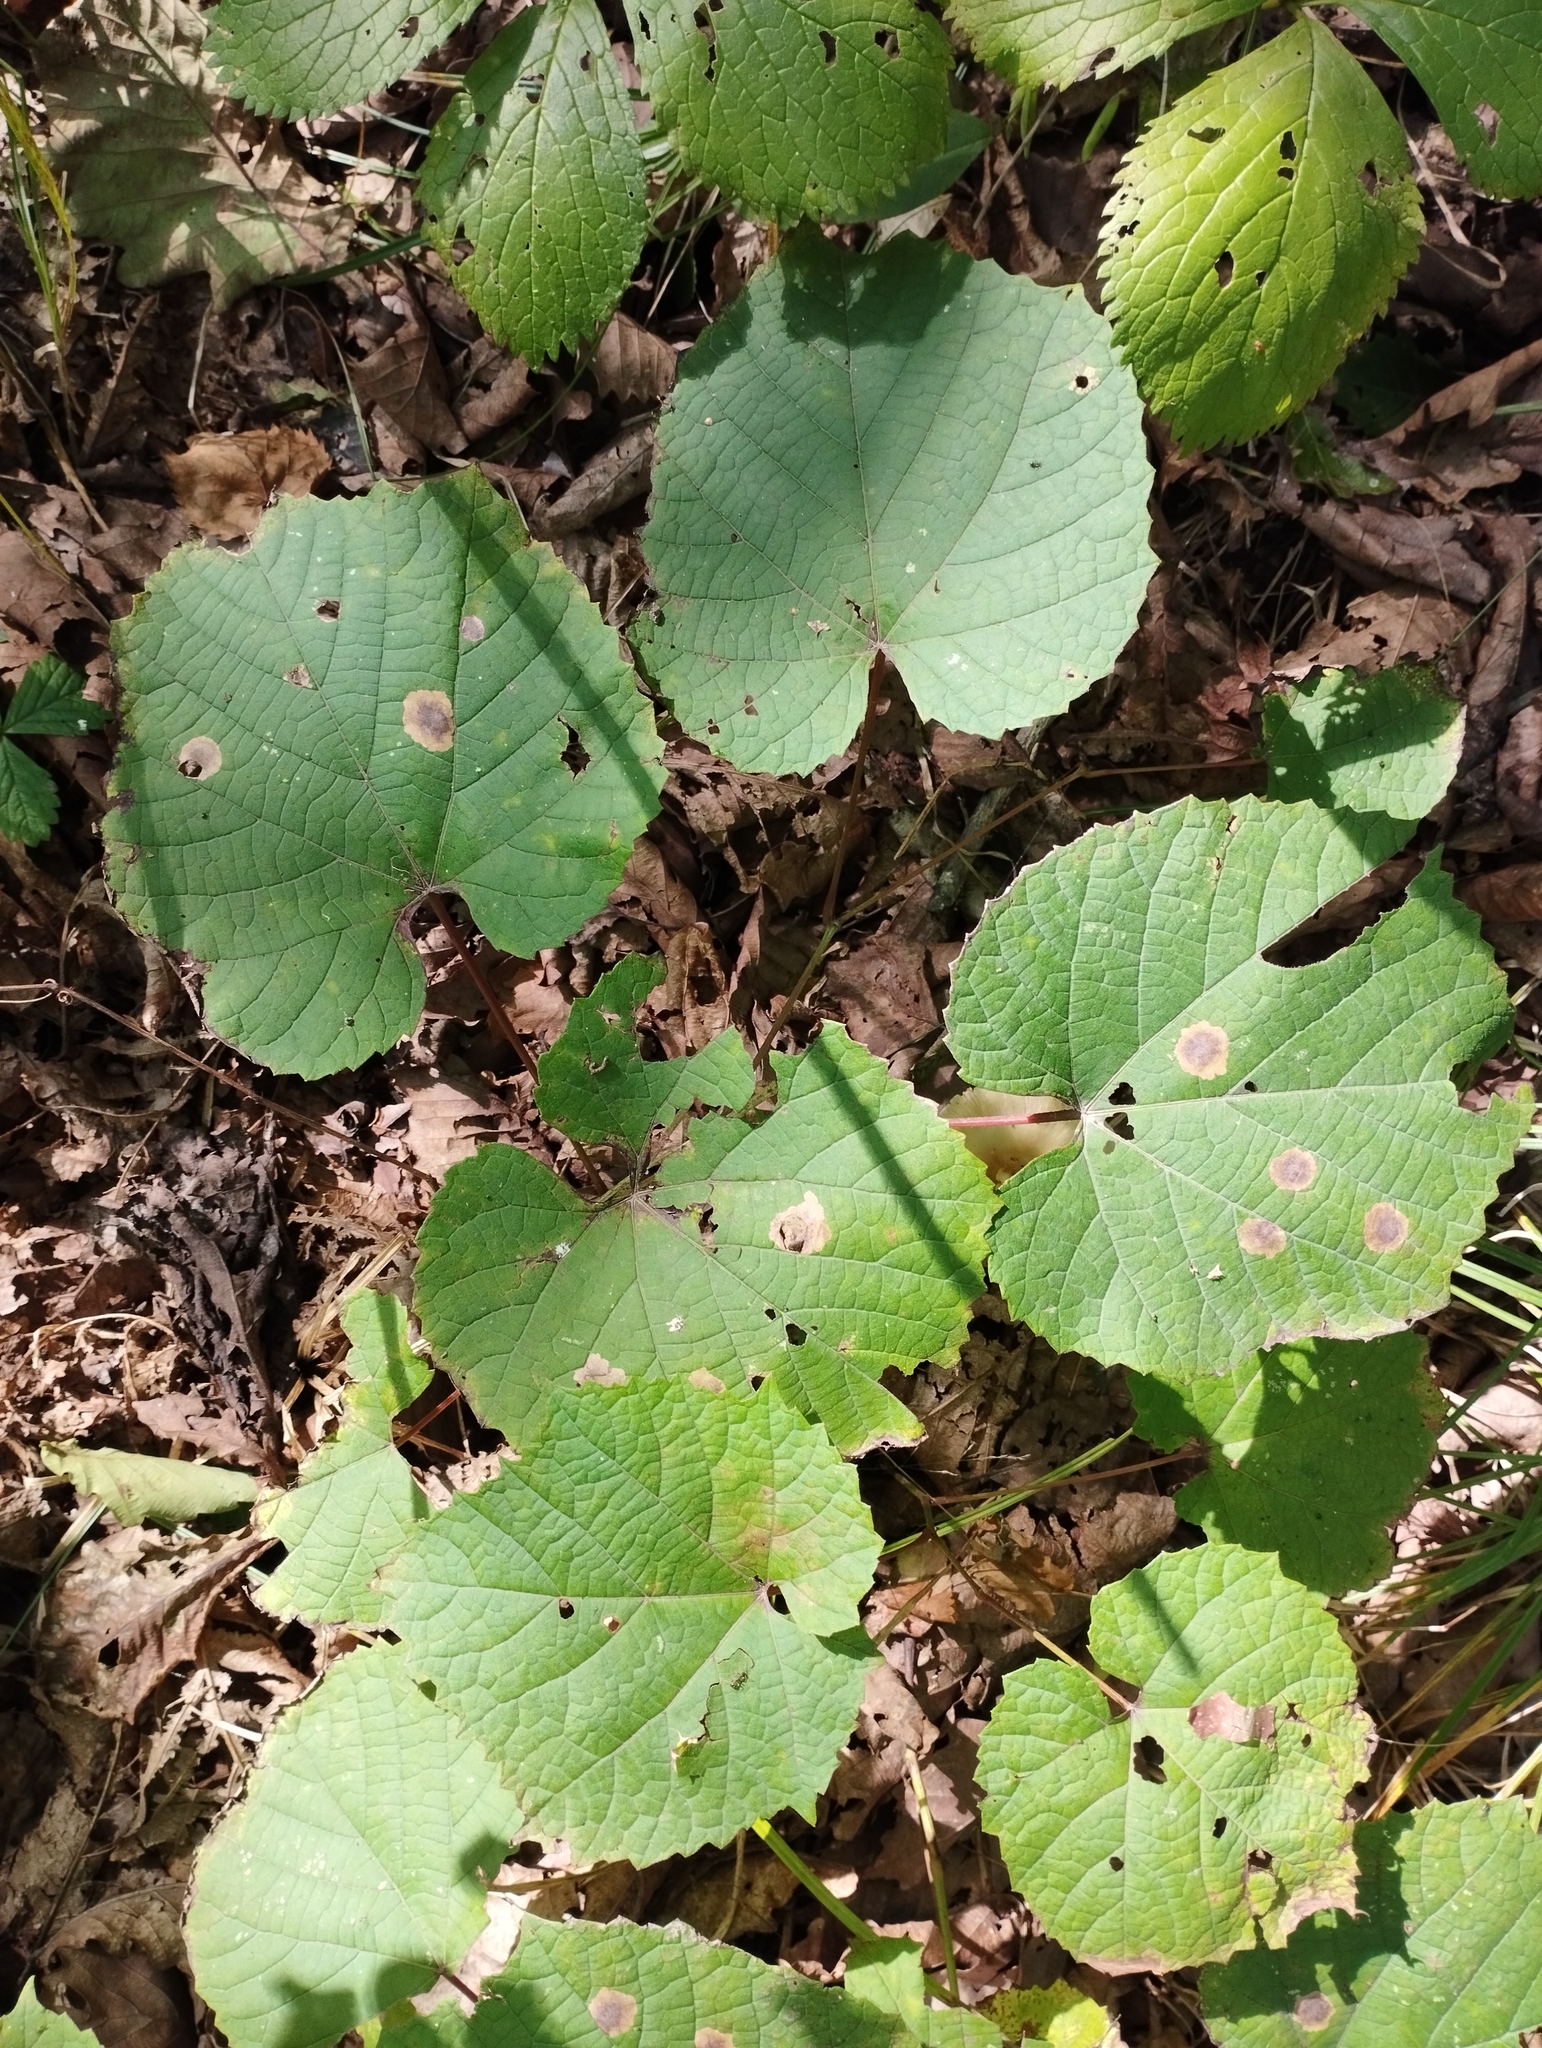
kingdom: Plantae
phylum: Tracheophyta
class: Magnoliopsida
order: Vitales
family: Vitaceae
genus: Vitis
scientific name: Vitis amurensis
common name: Amur grape
